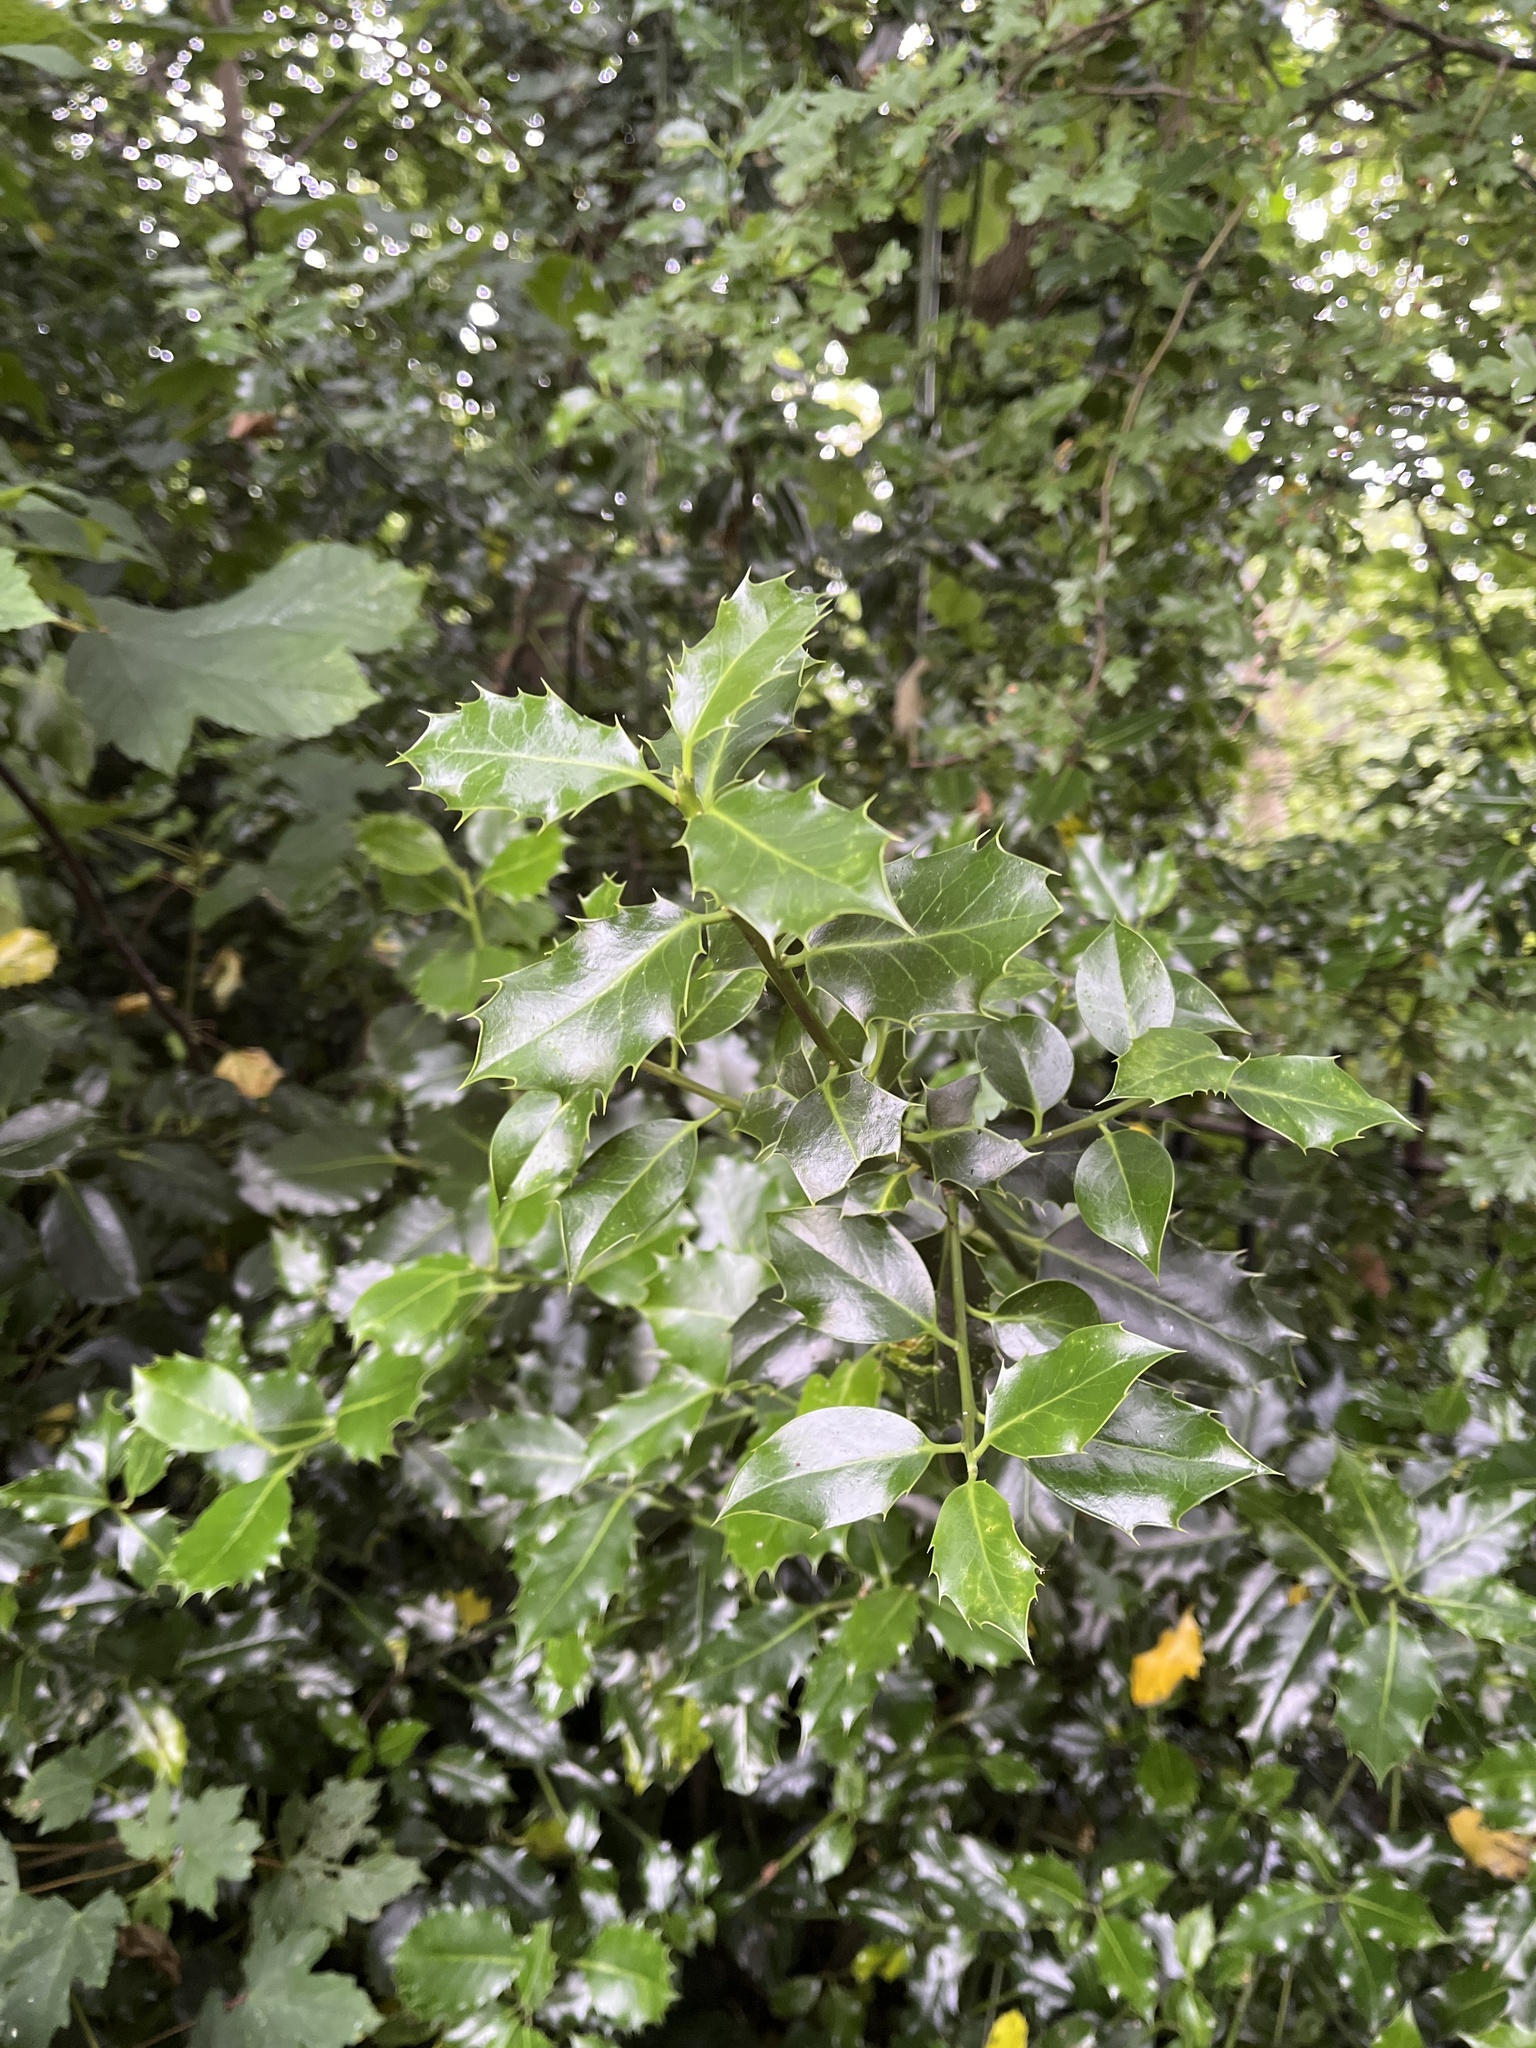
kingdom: Plantae
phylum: Tracheophyta
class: Magnoliopsida
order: Aquifoliales
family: Aquifoliaceae
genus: Ilex
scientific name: Ilex aquifolium
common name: English holly
